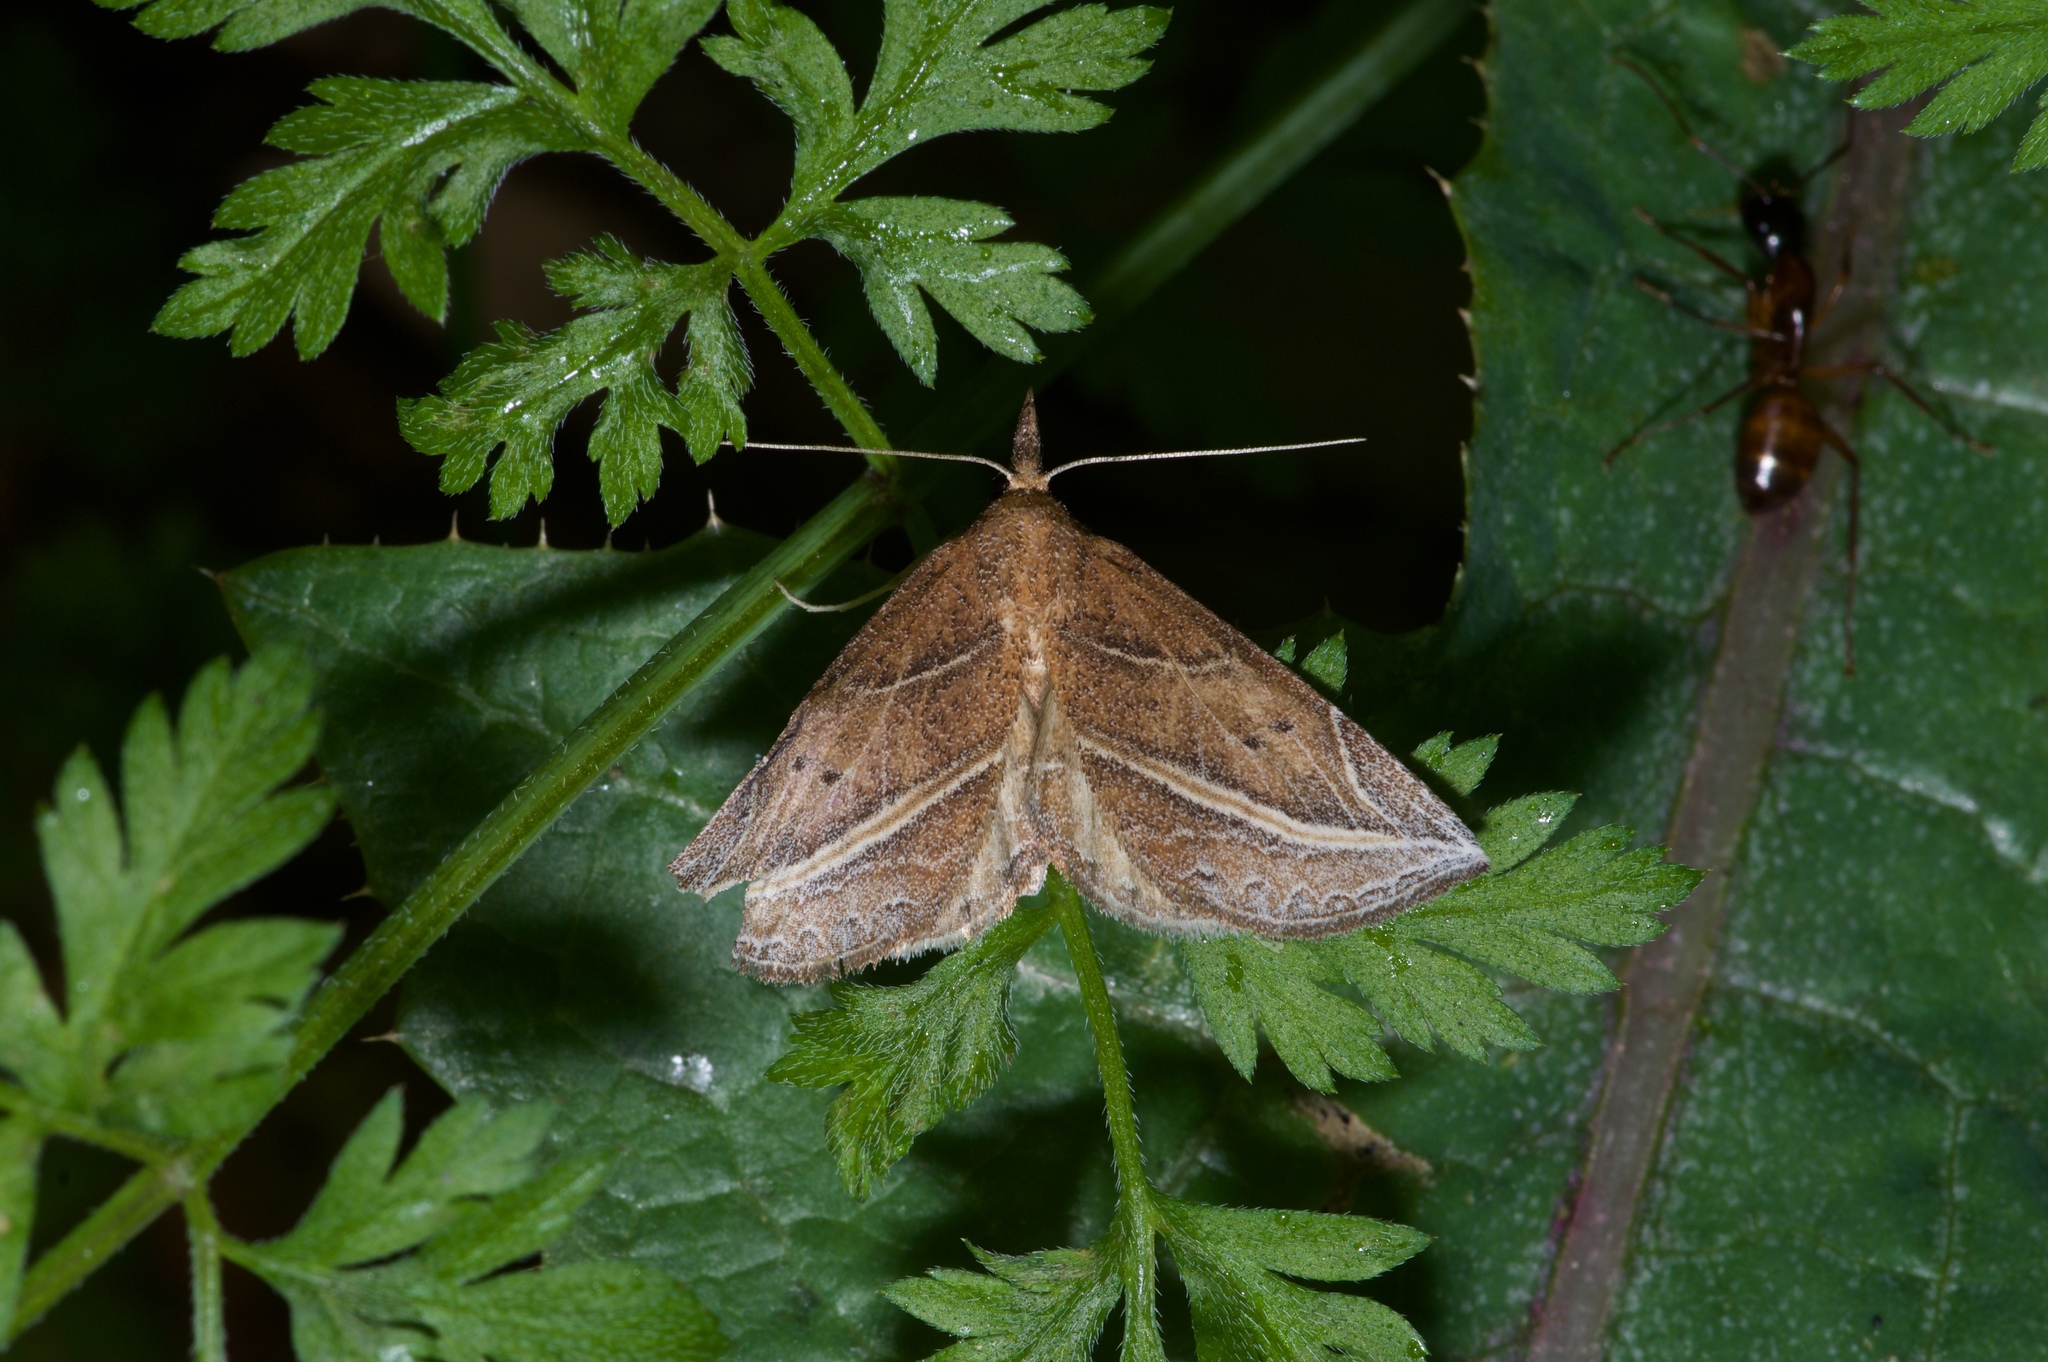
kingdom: Animalia
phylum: Arthropoda
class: Insecta
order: Lepidoptera
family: Erebidae
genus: Phyprosopus
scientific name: Phyprosopus callitrichoides
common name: Curved-lined owlet
